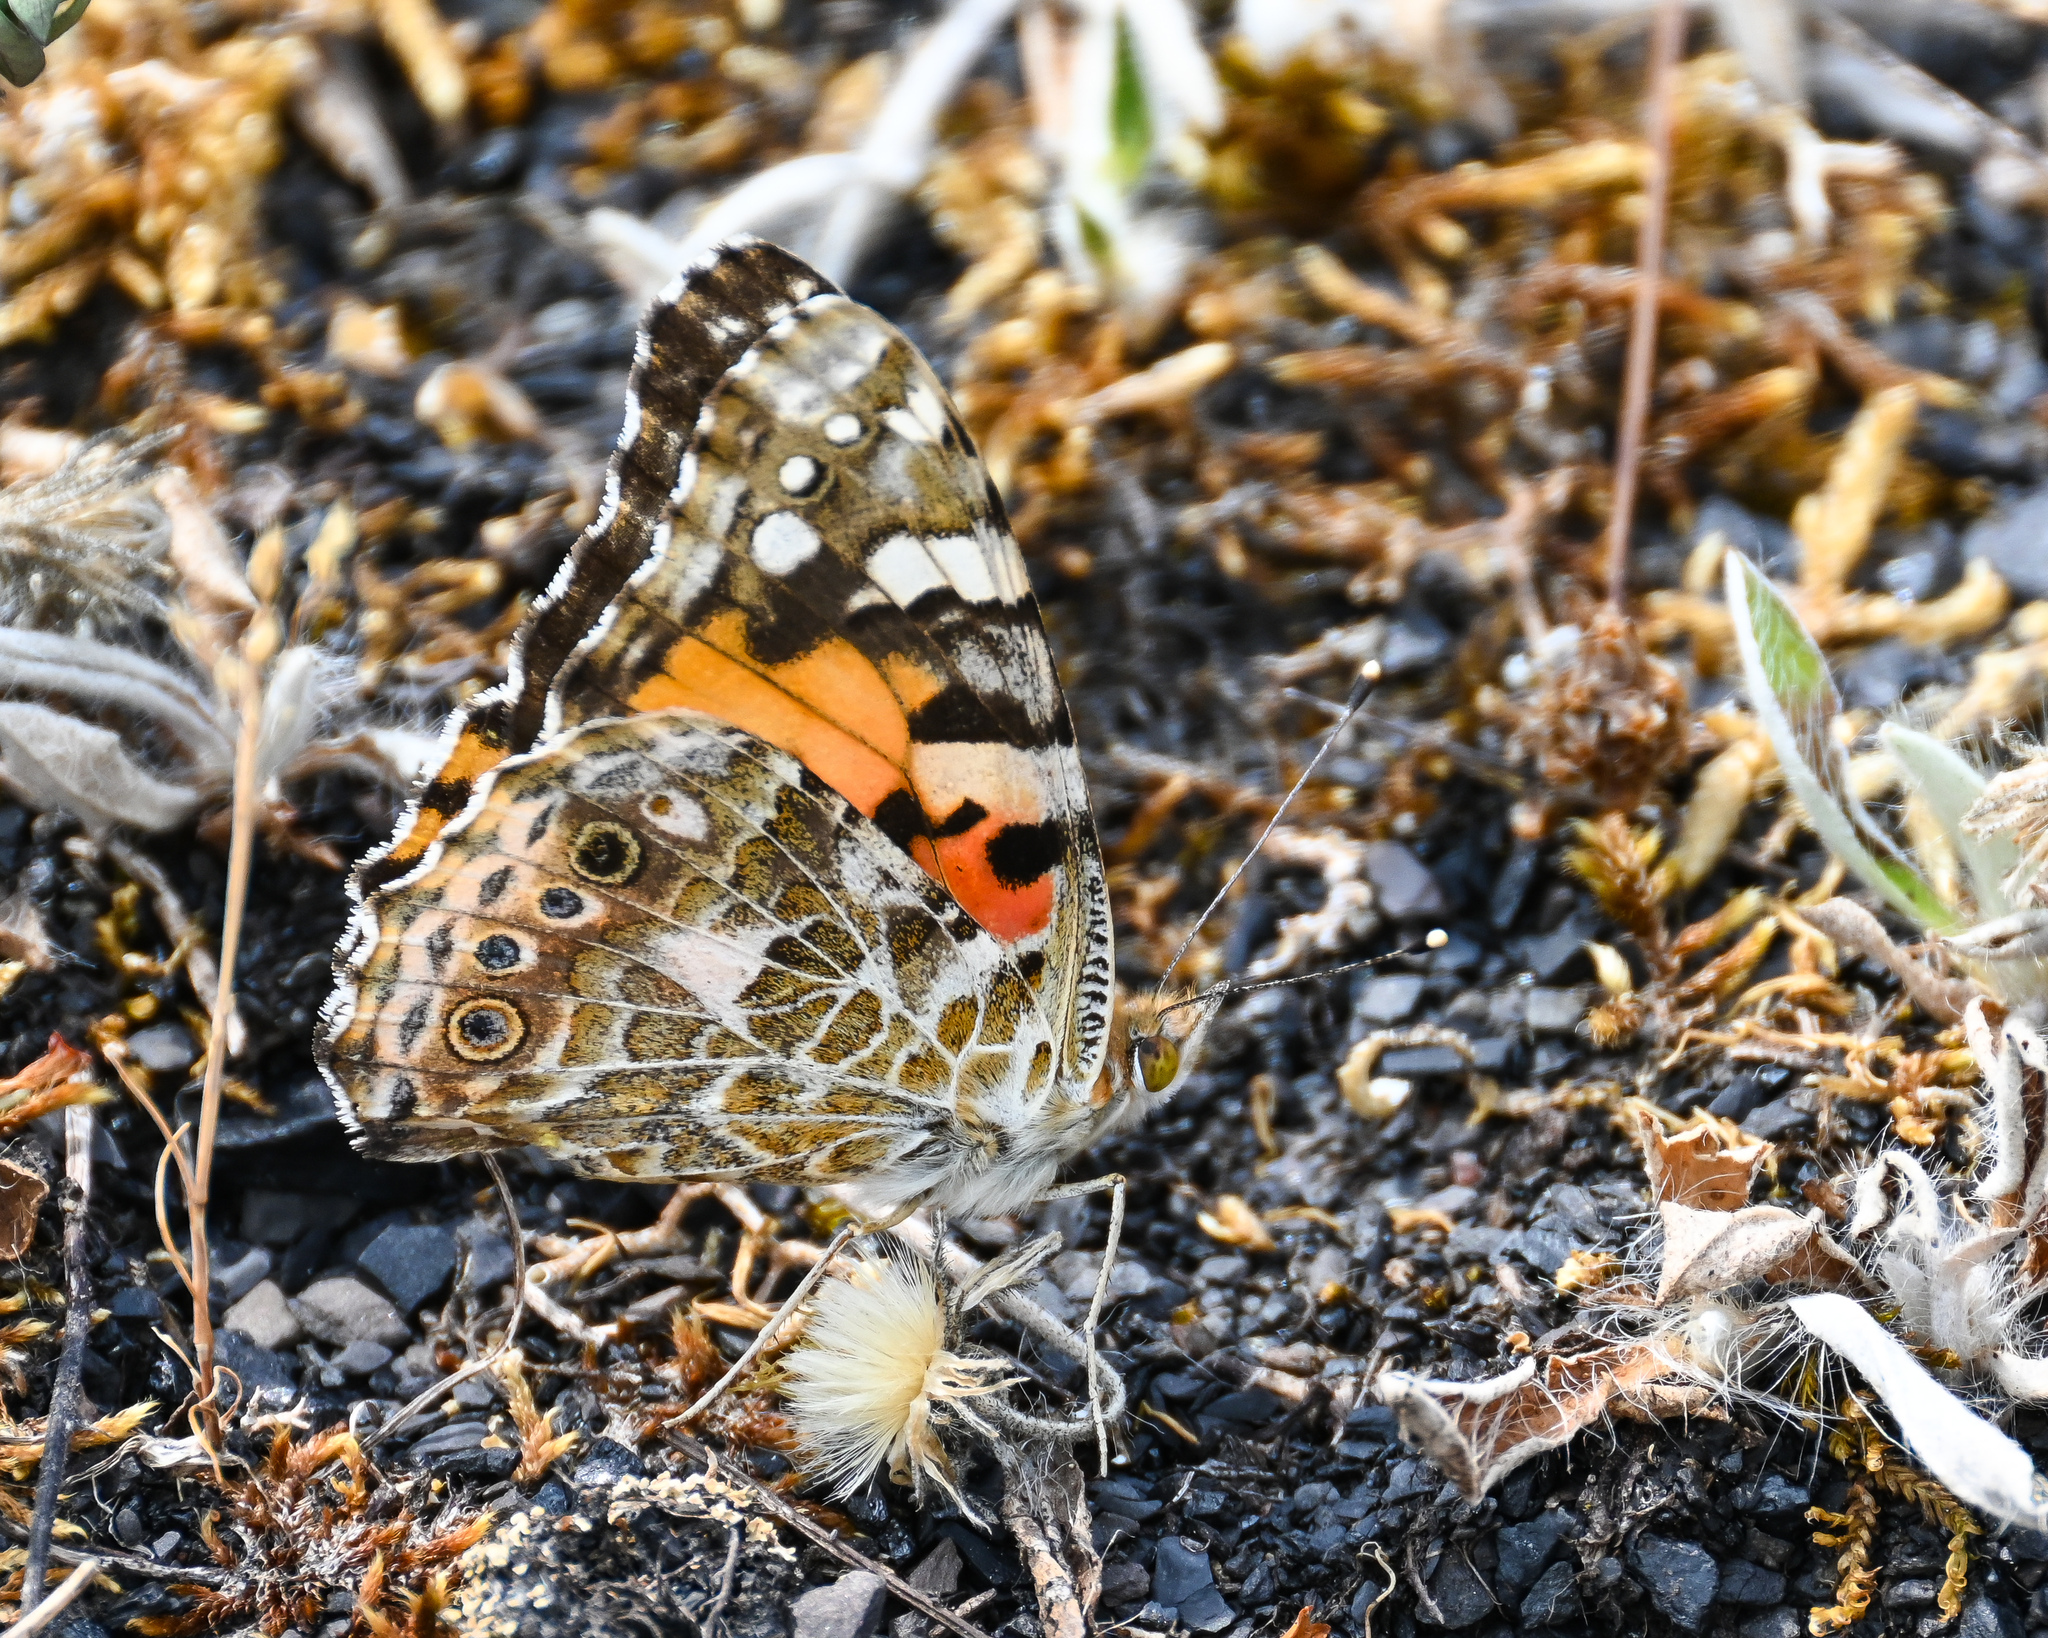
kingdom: Animalia
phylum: Arthropoda
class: Insecta
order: Lepidoptera
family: Nymphalidae
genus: Vanessa
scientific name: Vanessa cardui
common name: Painted lady
